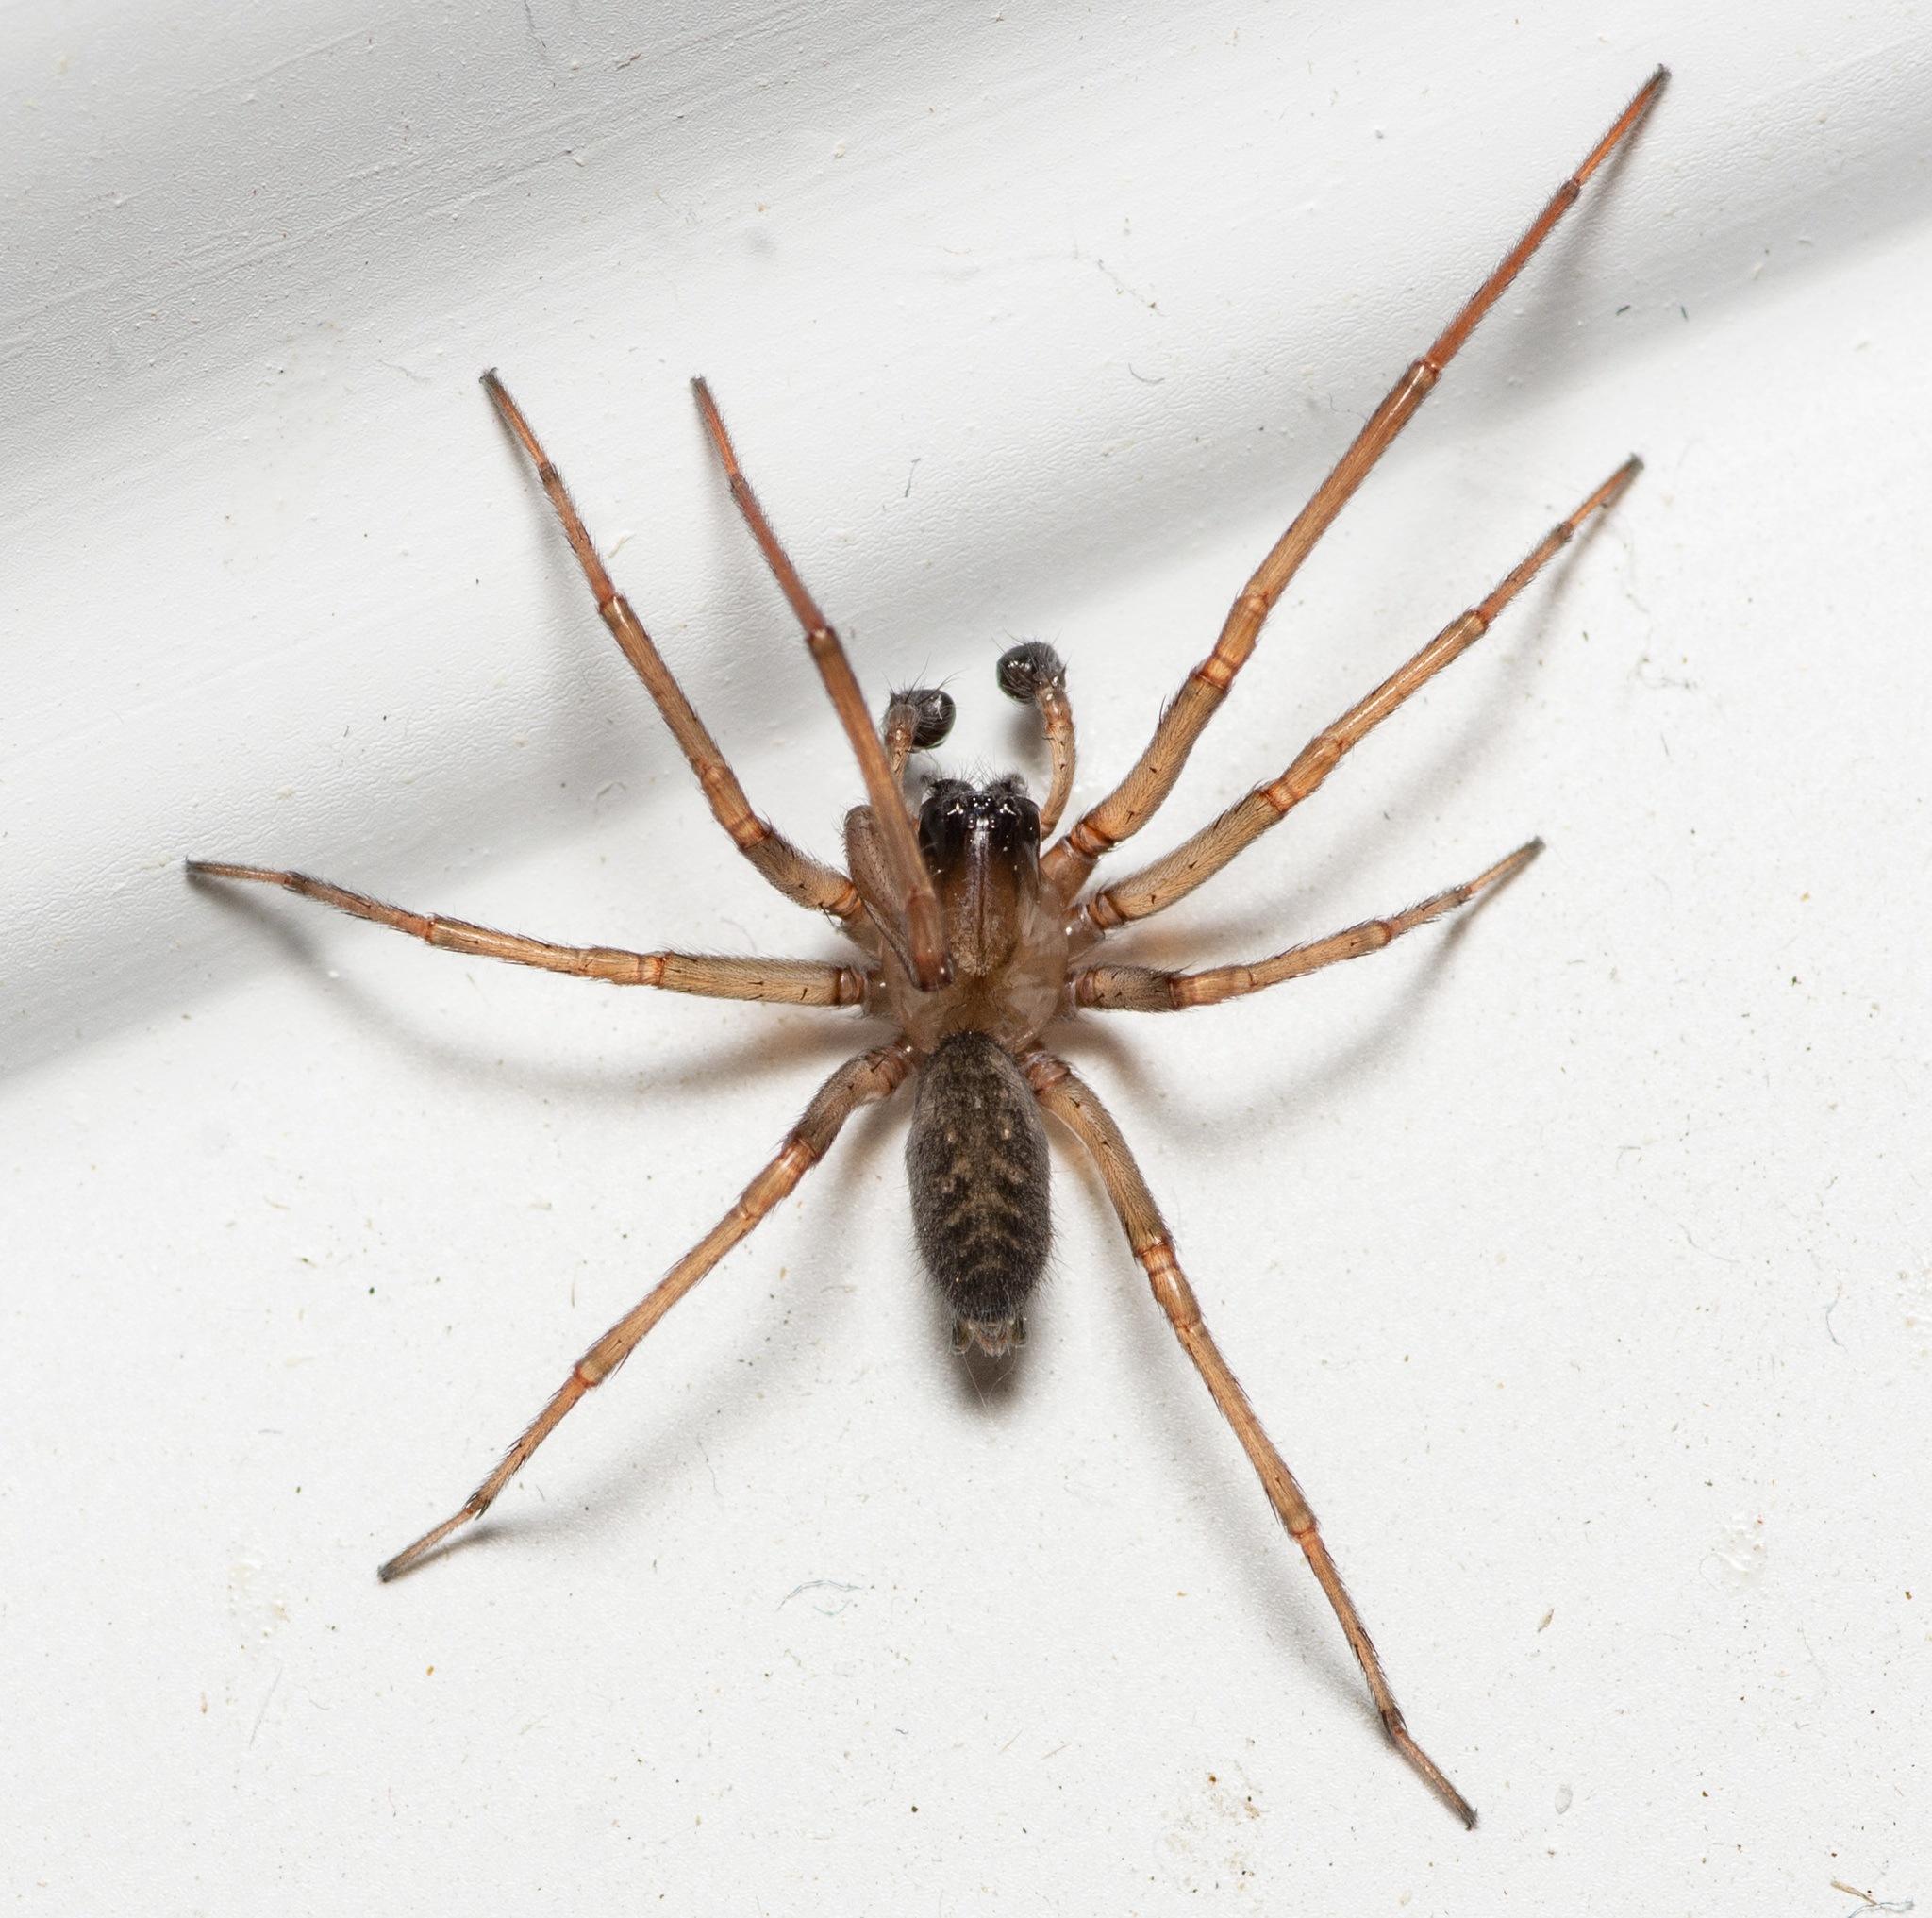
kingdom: Animalia
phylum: Arthropoda
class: Arachnida
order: Araneae
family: Desidae
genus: Metaltella
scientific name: Metaltella simoni
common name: Cribellate spider
